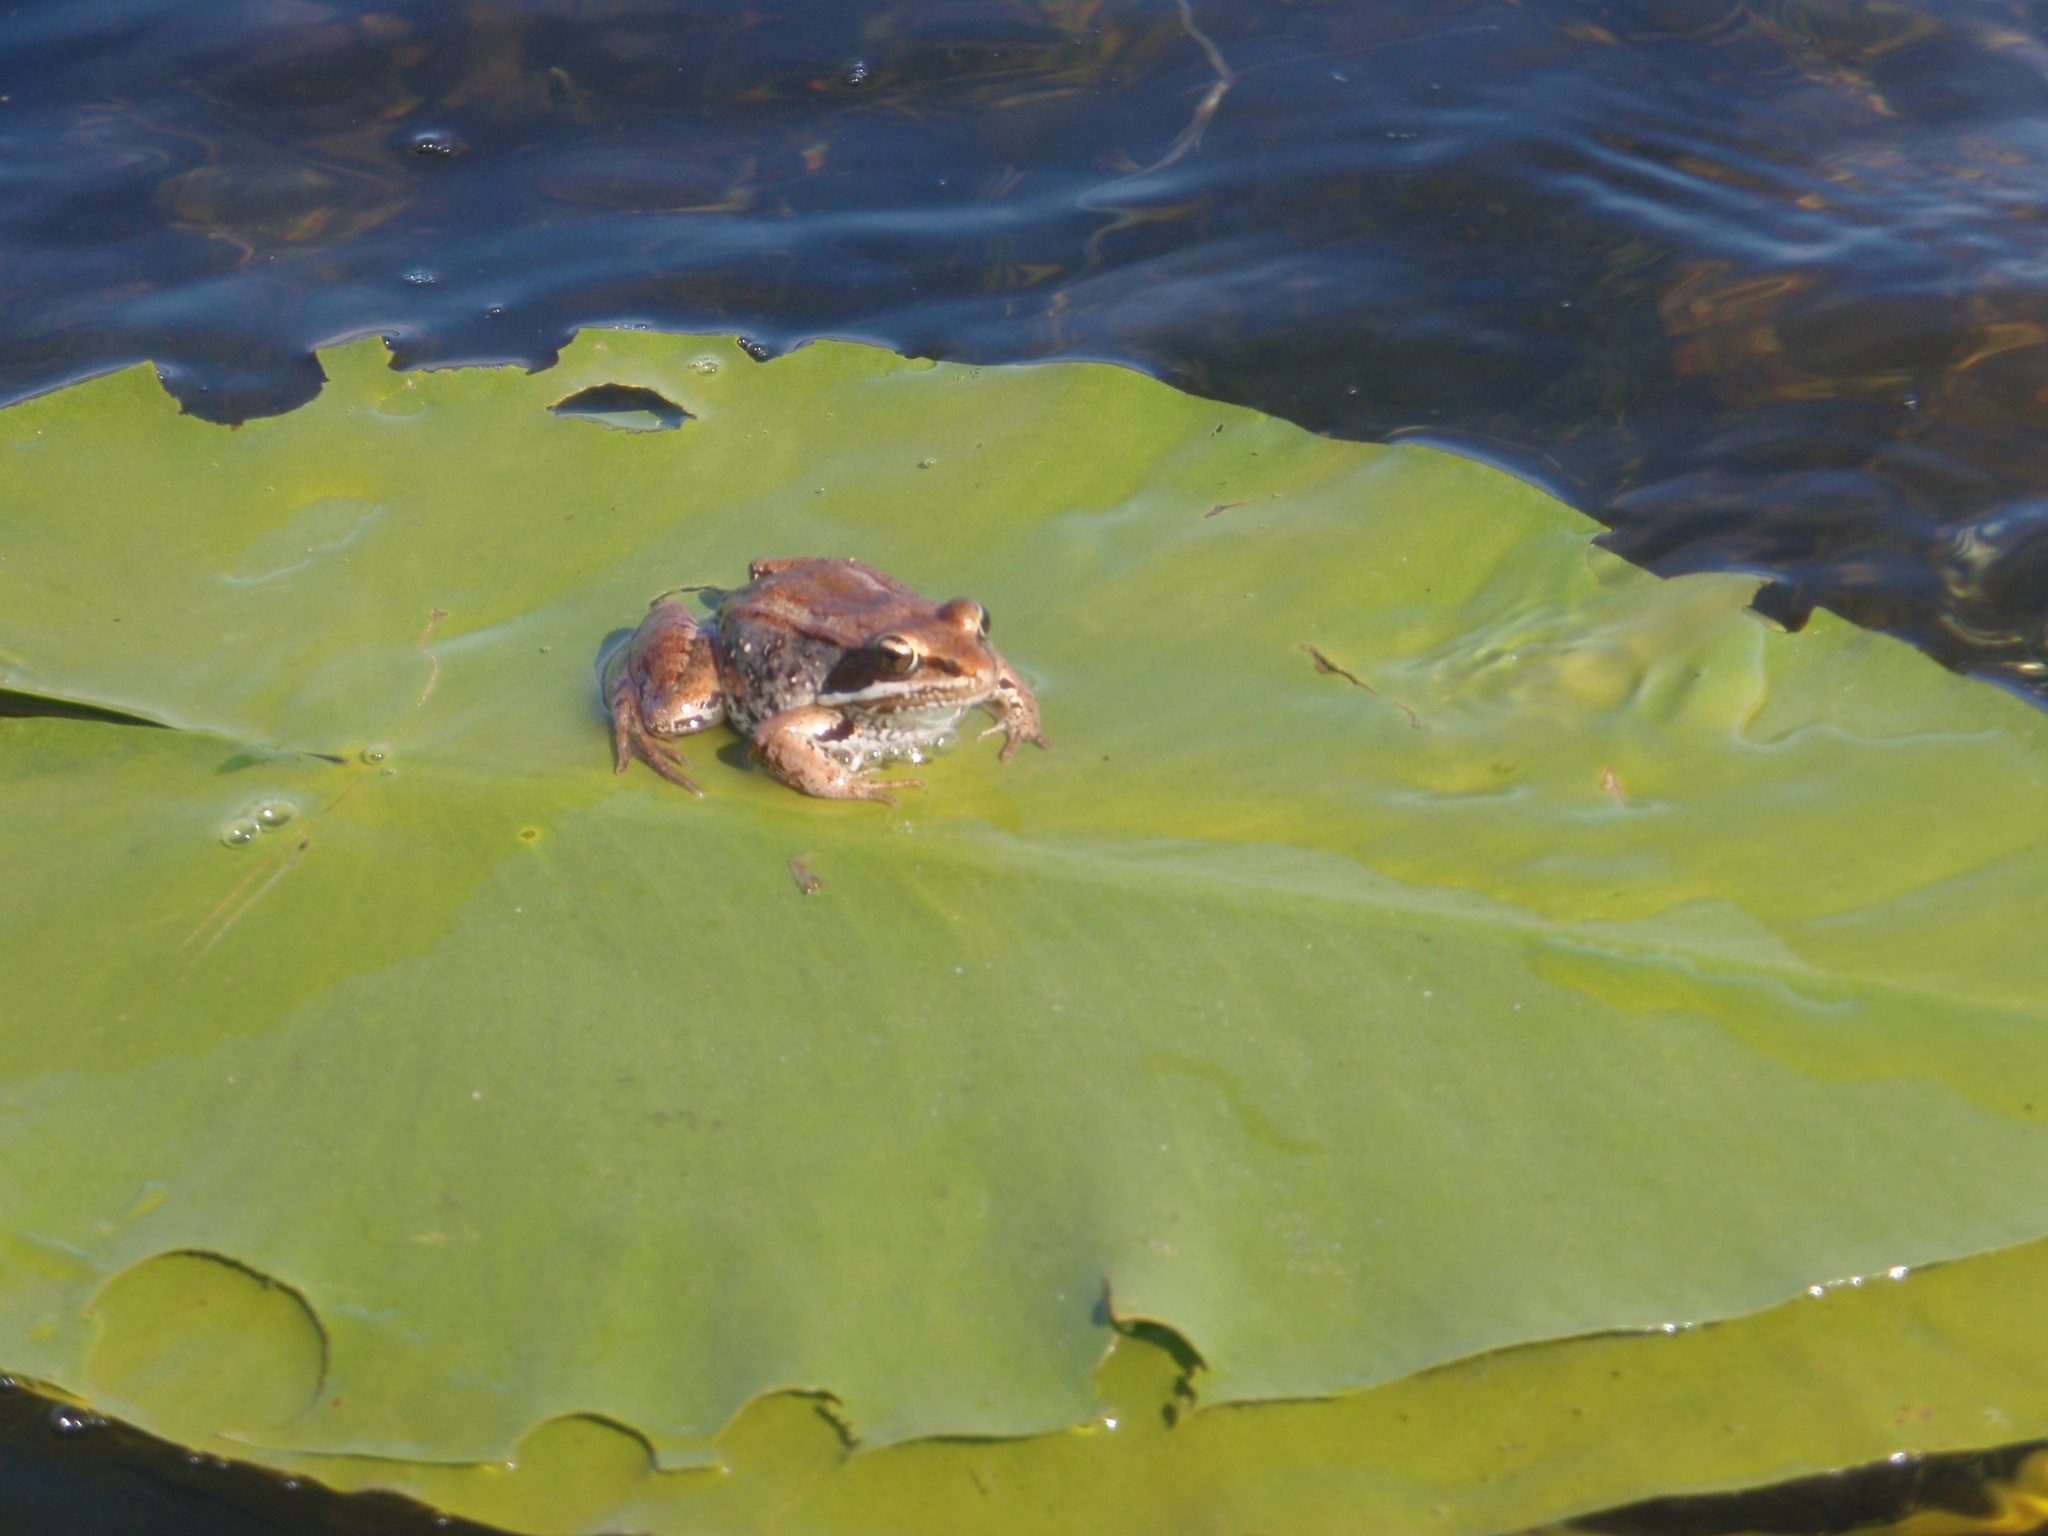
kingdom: Animalia
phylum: Chordata
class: Amphibia
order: Anura
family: Ranidae
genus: Lithobates
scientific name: Lithobates sylvaticus
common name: Wood frog
